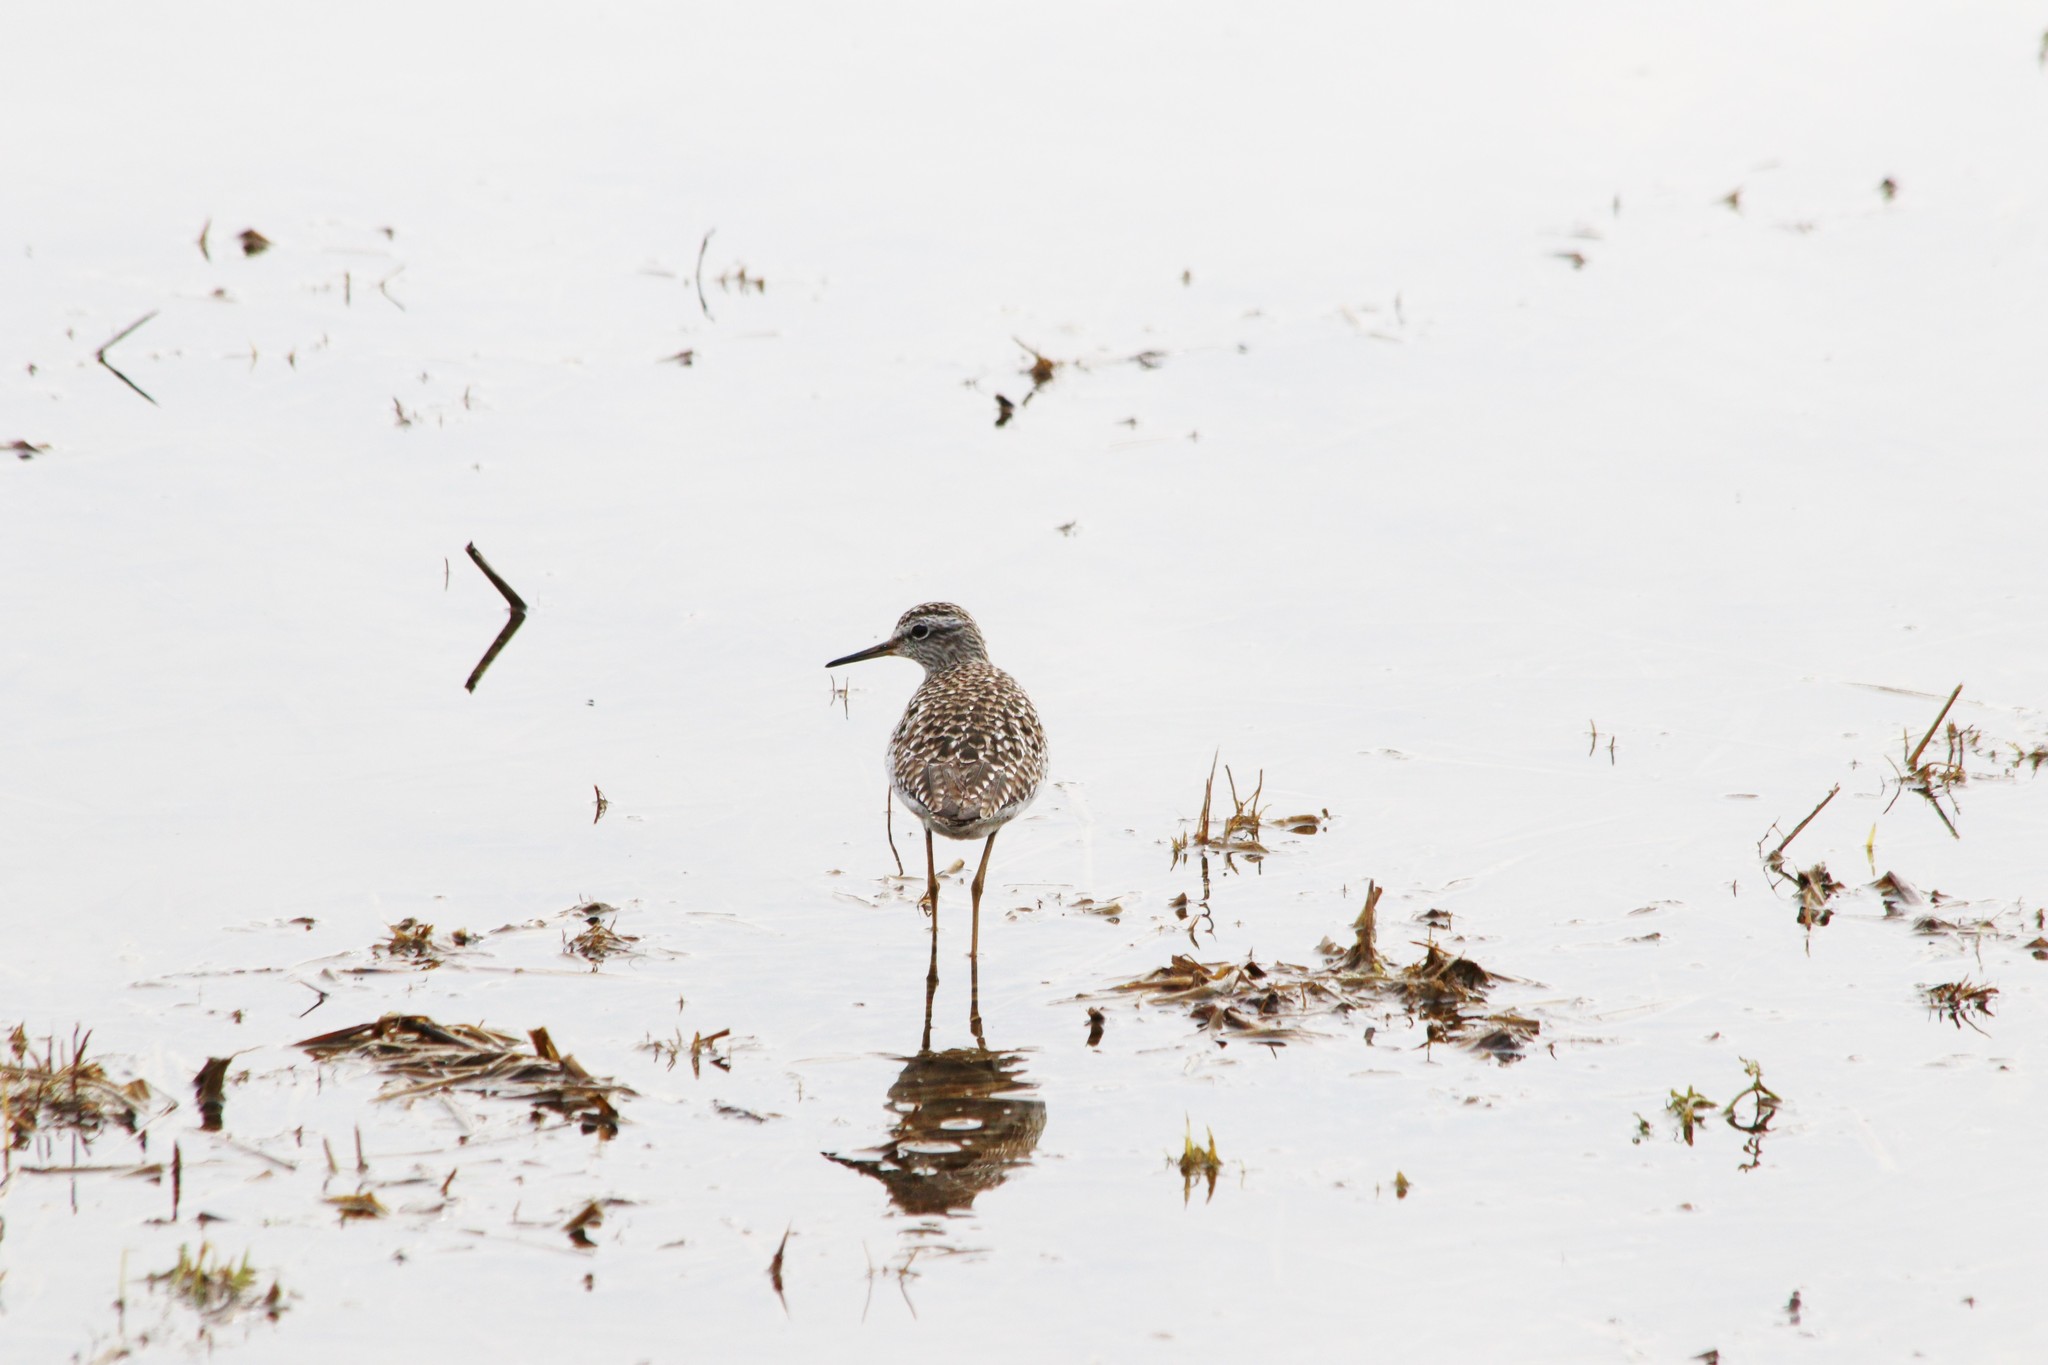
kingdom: Animalia
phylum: Chordata
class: Aves
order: Charadriiformes
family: Scolopacidae
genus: Tringa
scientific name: Tringa glareola
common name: Wood sandpiper
